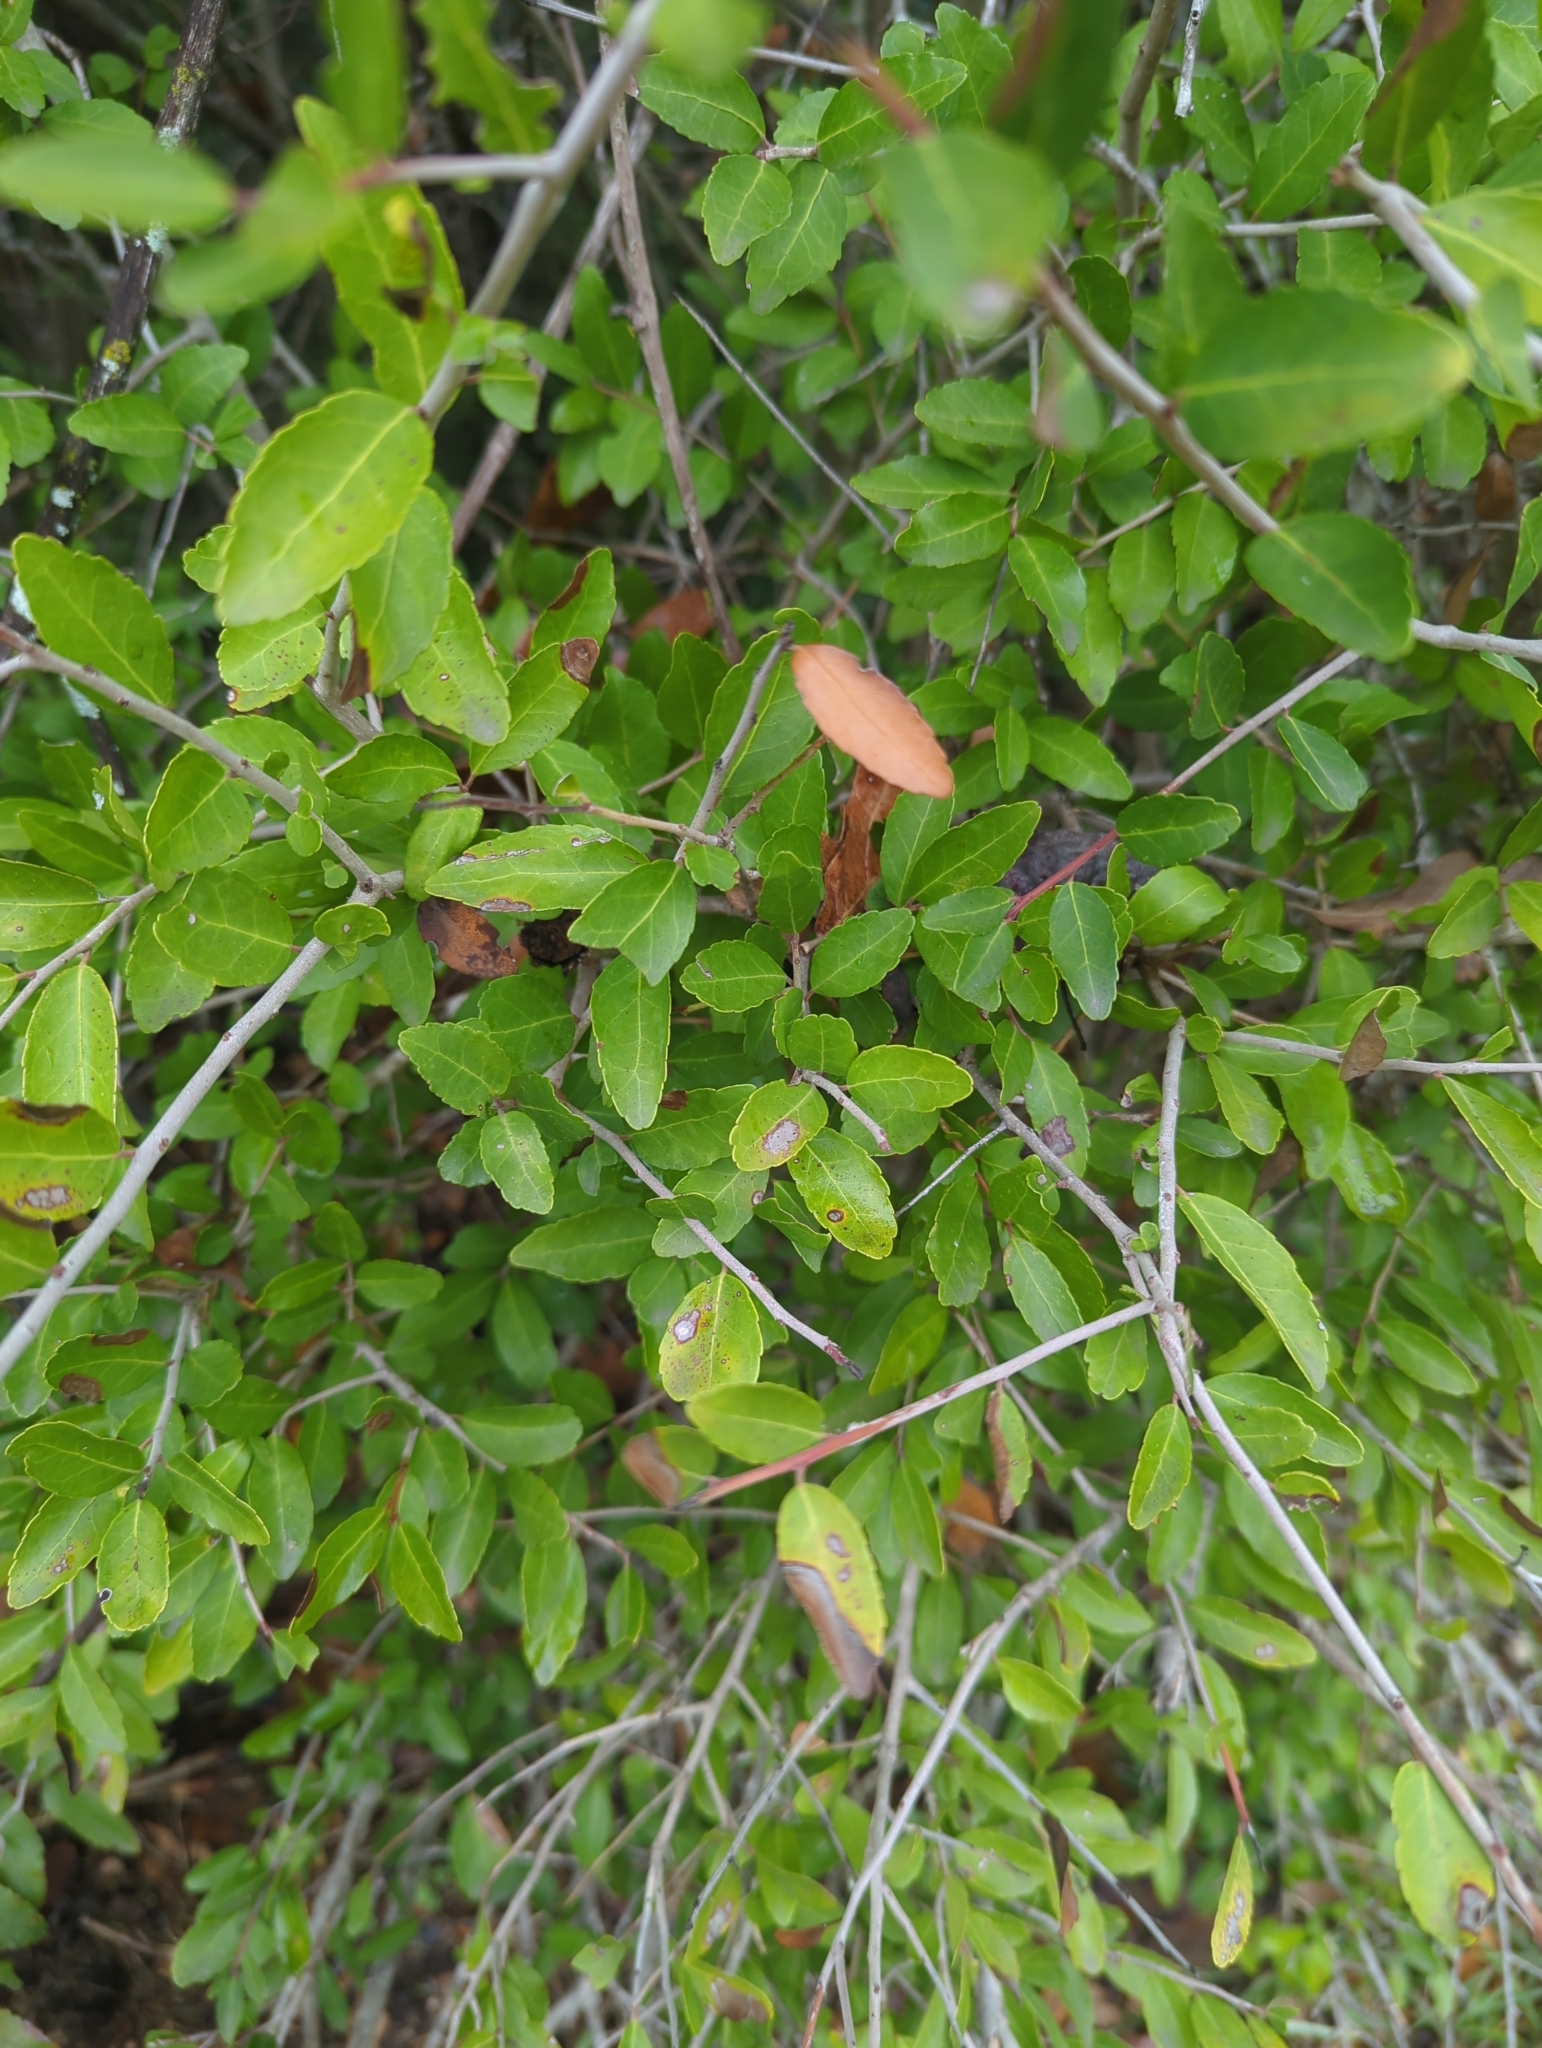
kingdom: Plantae
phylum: Tracheophyta
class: Magnoliopsida
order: Aquifoliales
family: Aquifoliaceae
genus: Ilex
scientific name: Ilex vomitoria
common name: Yaupon holly
